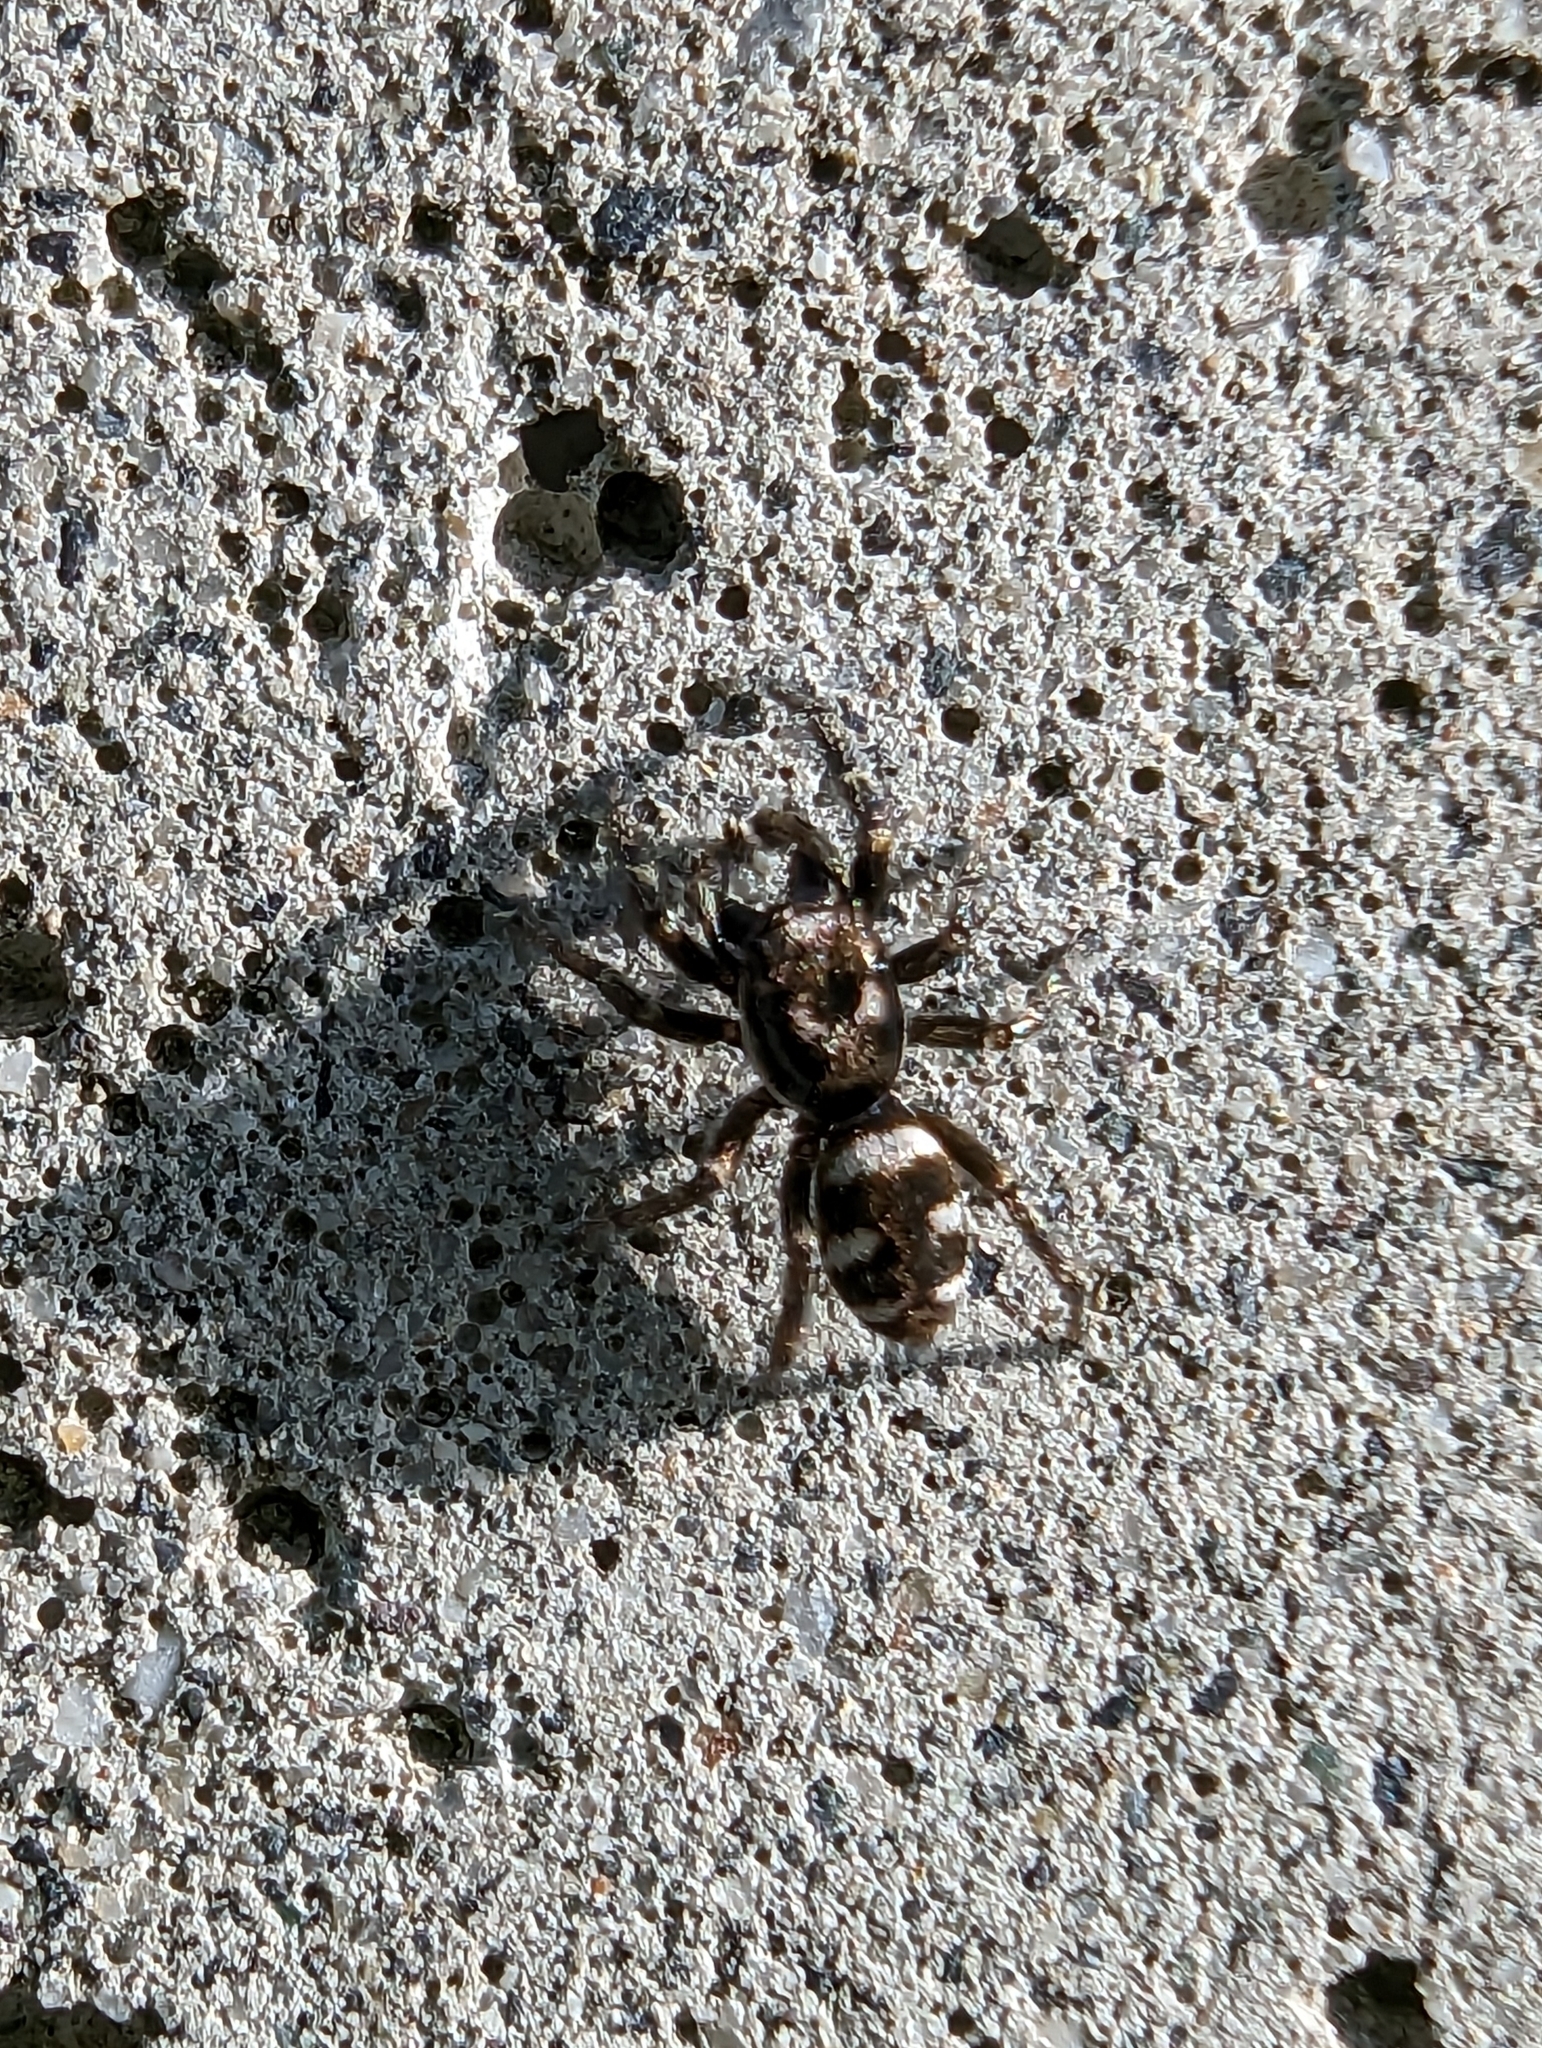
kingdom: Animalia
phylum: Arthropoda
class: Arachnida
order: Araneae
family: Salticidae
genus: Salticus
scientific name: Salticus scenicus
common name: Zebra jumper
